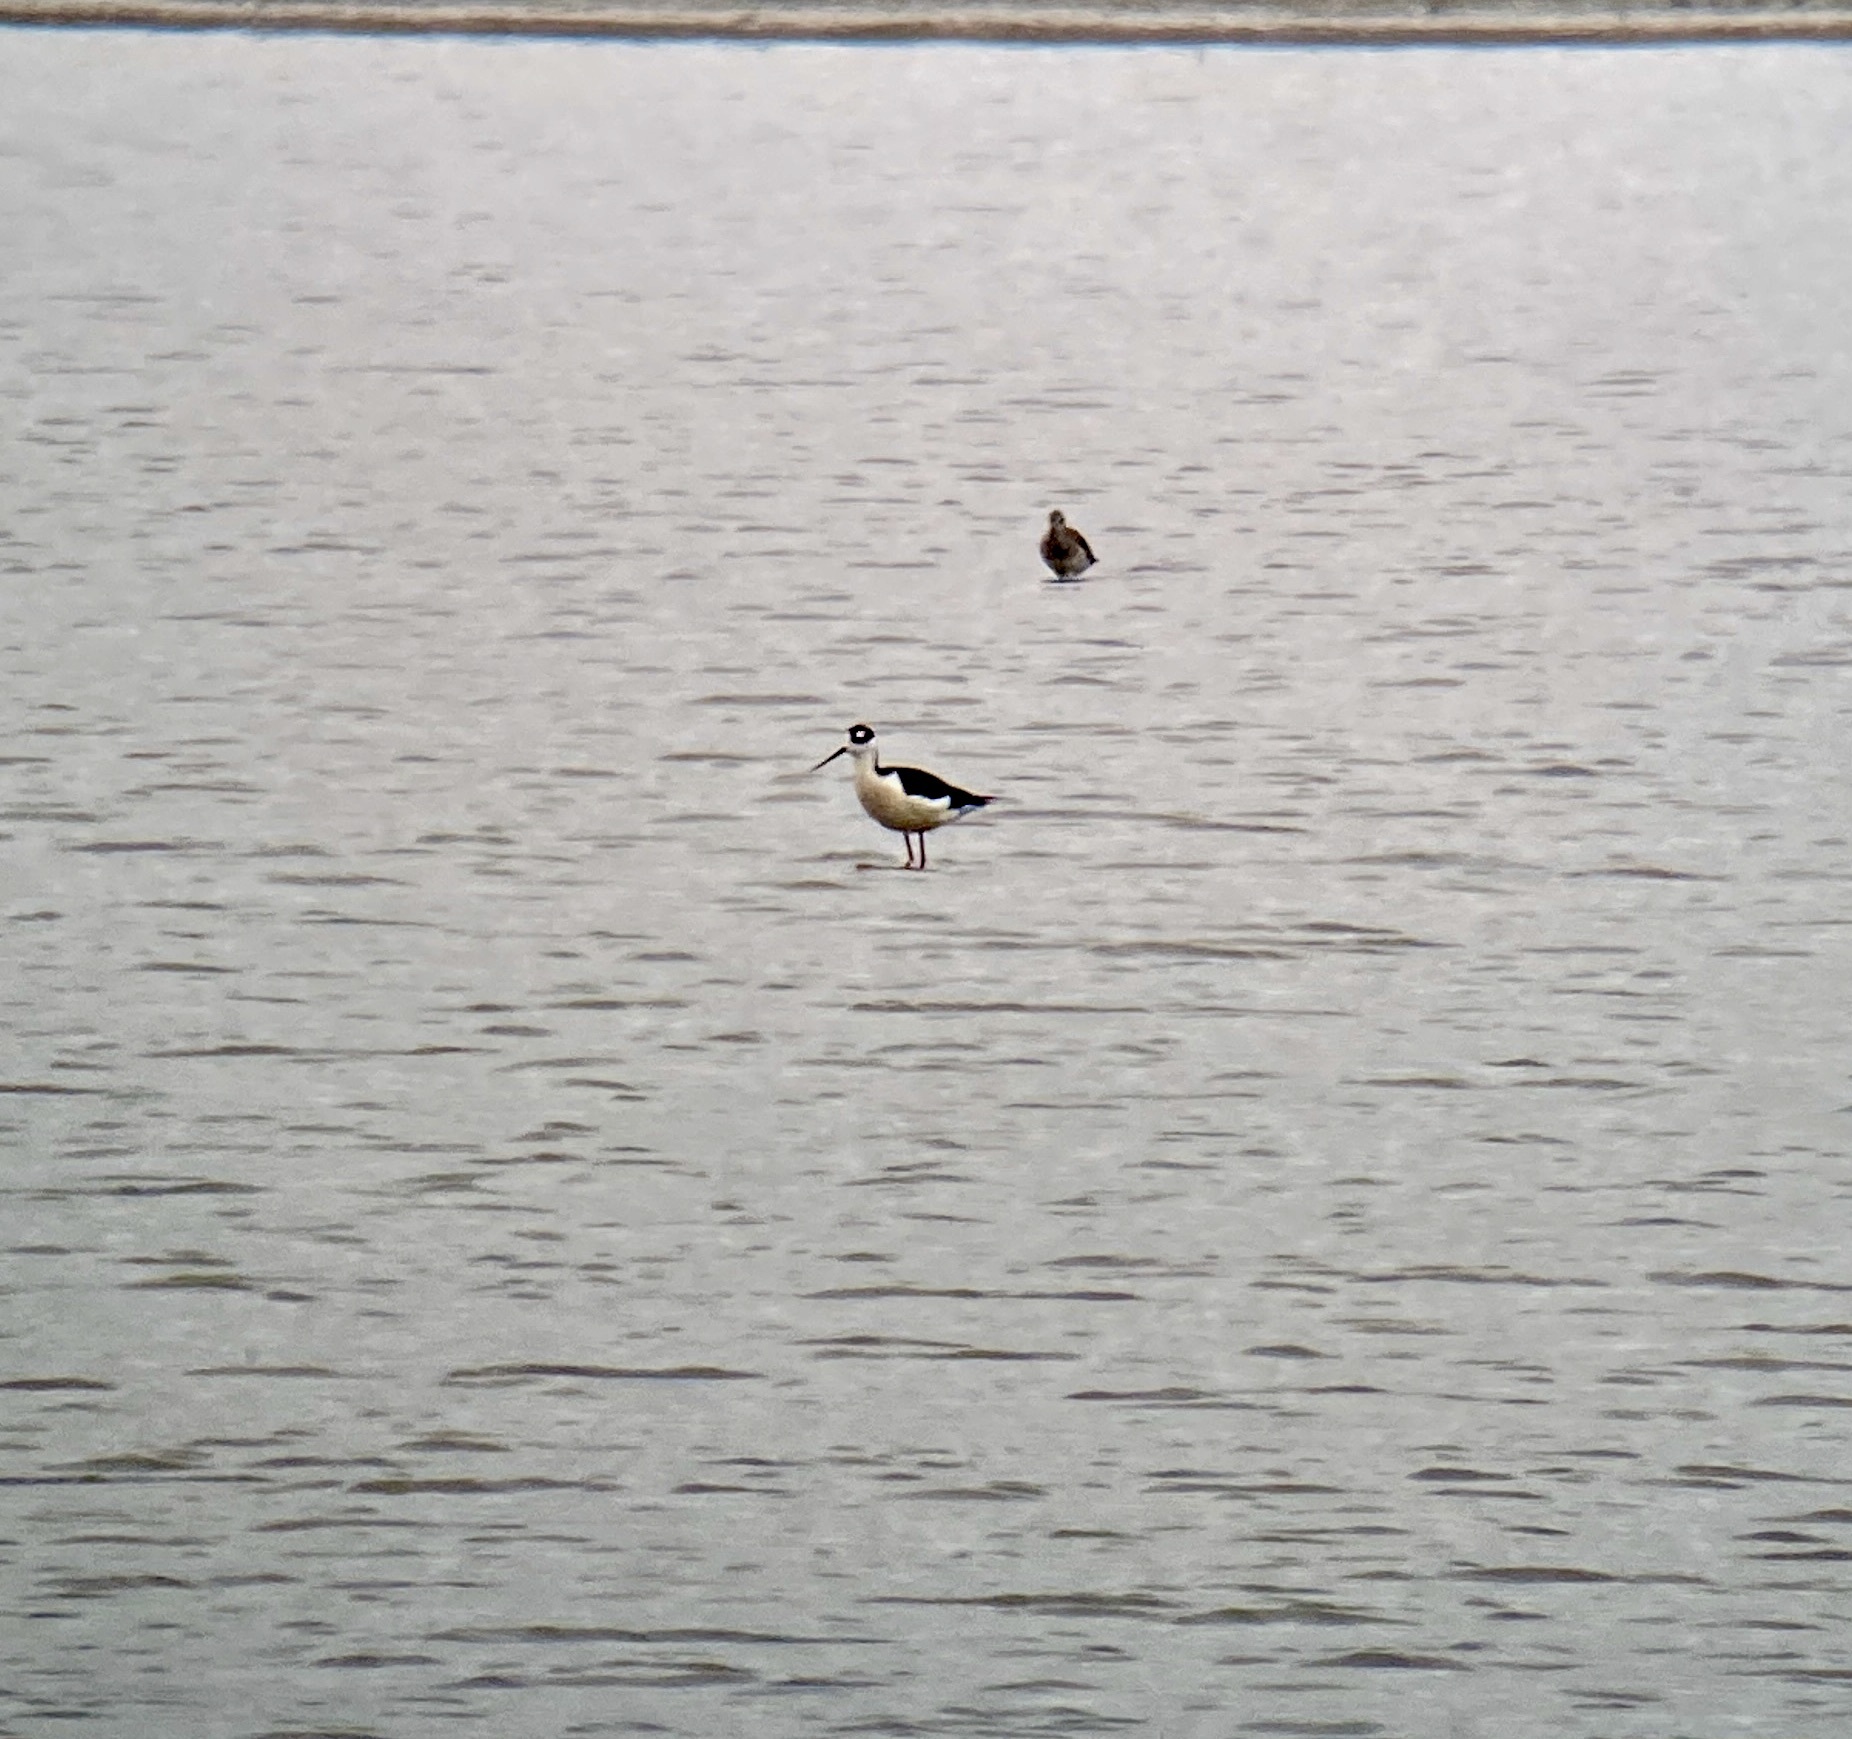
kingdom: Animalia
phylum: Chordata
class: Aves
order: Charadriiformes
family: Recurvirostridae
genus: Himantopus
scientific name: Himantopus mexicanus
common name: Black-necked stilt
